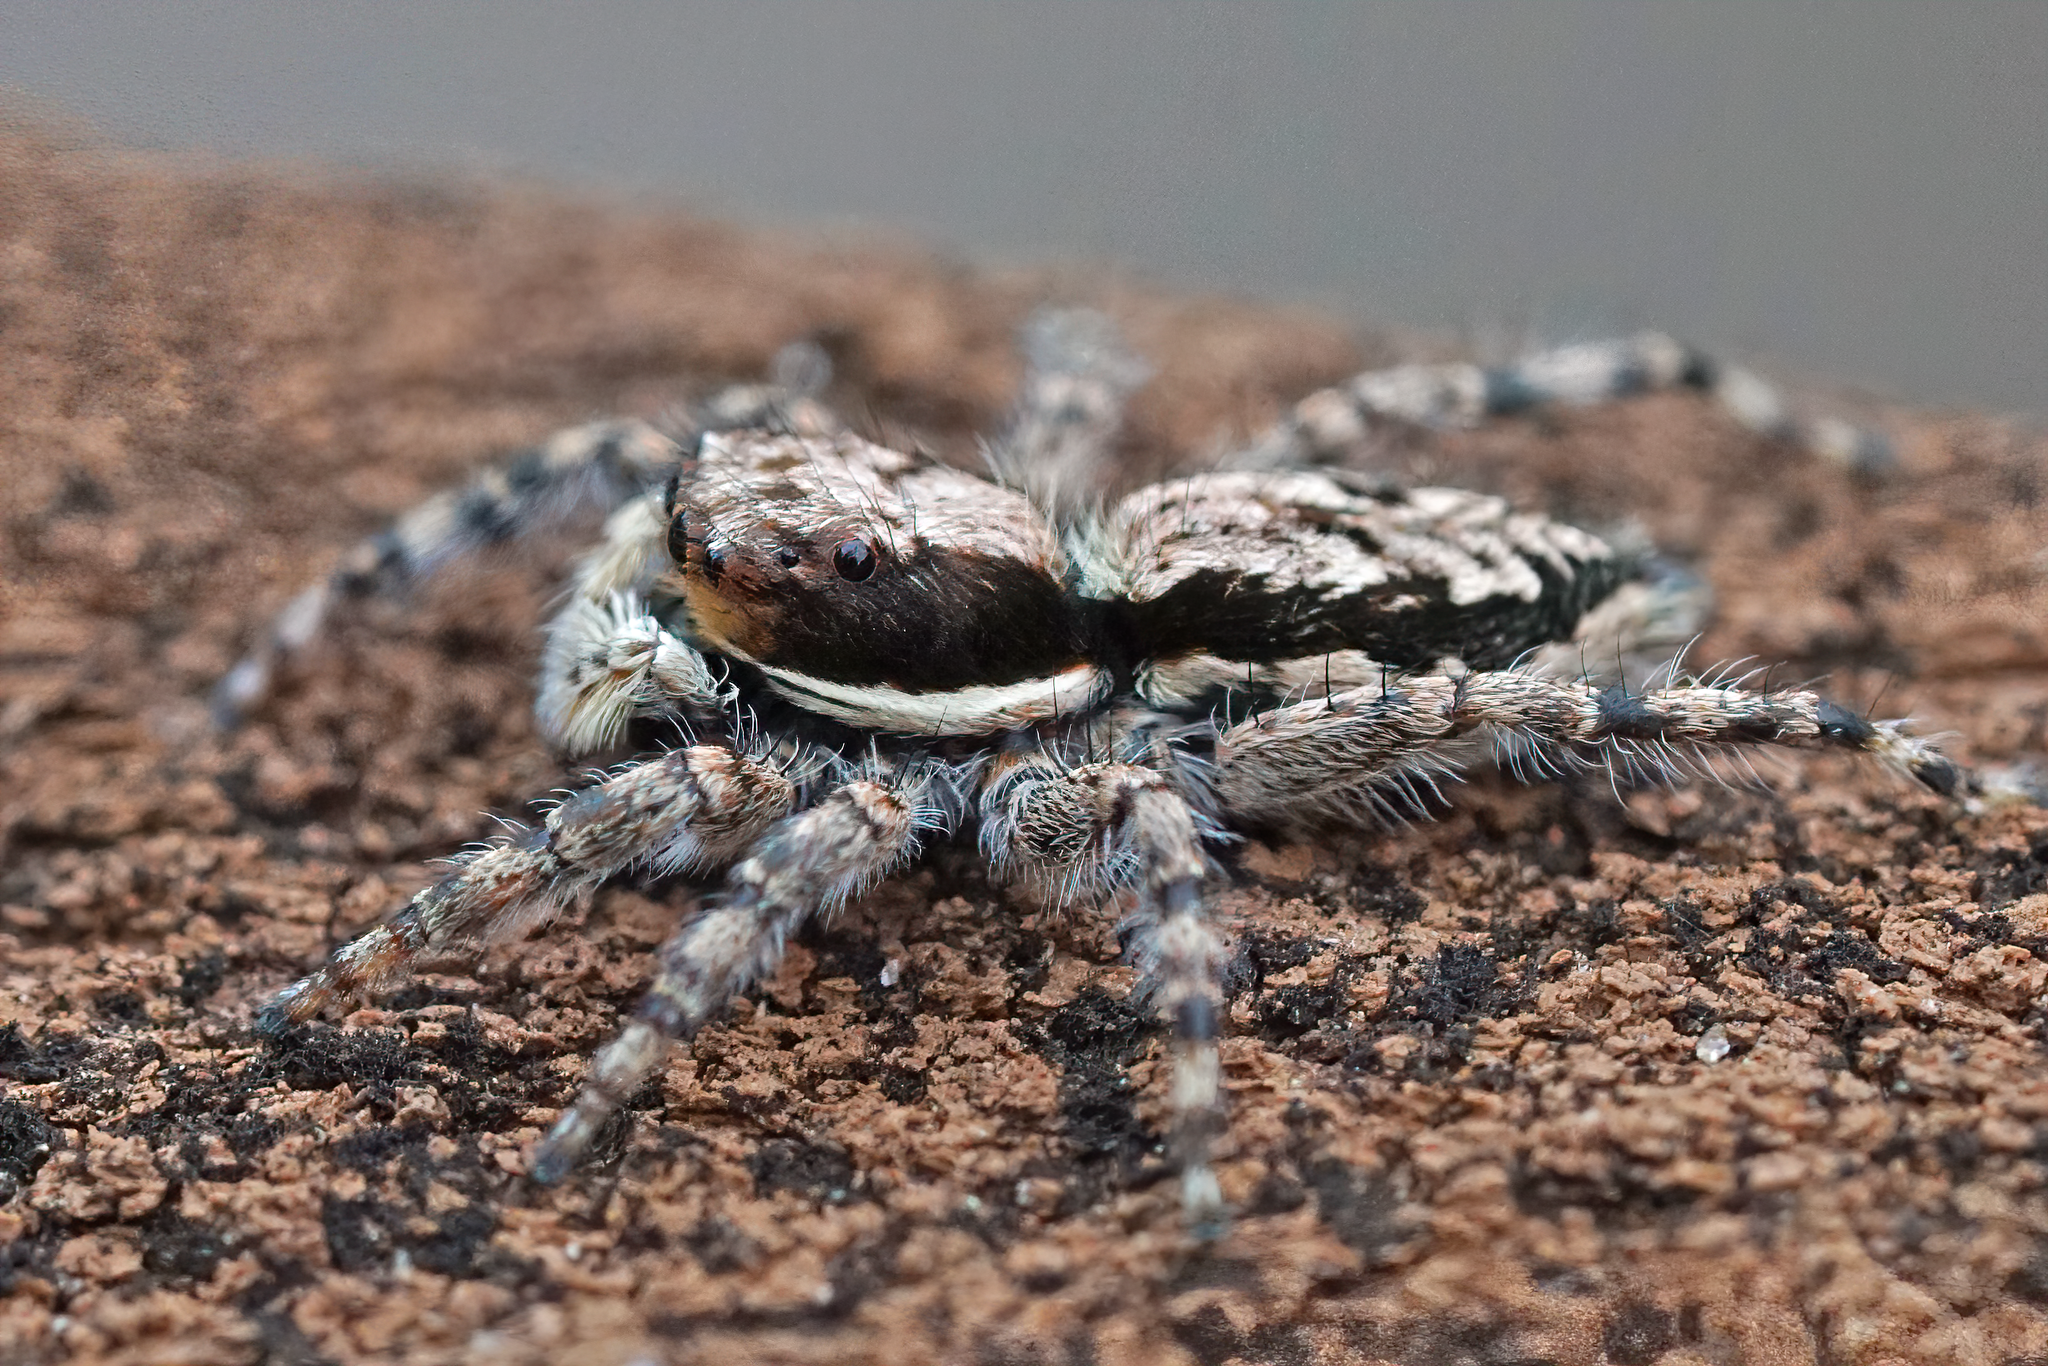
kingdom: Animalia
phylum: Arthropoda
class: Arachnida
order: Araneae
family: Salticidae
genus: Menemerus
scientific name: Menemerus bivittatus
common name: Gray wall jumper
